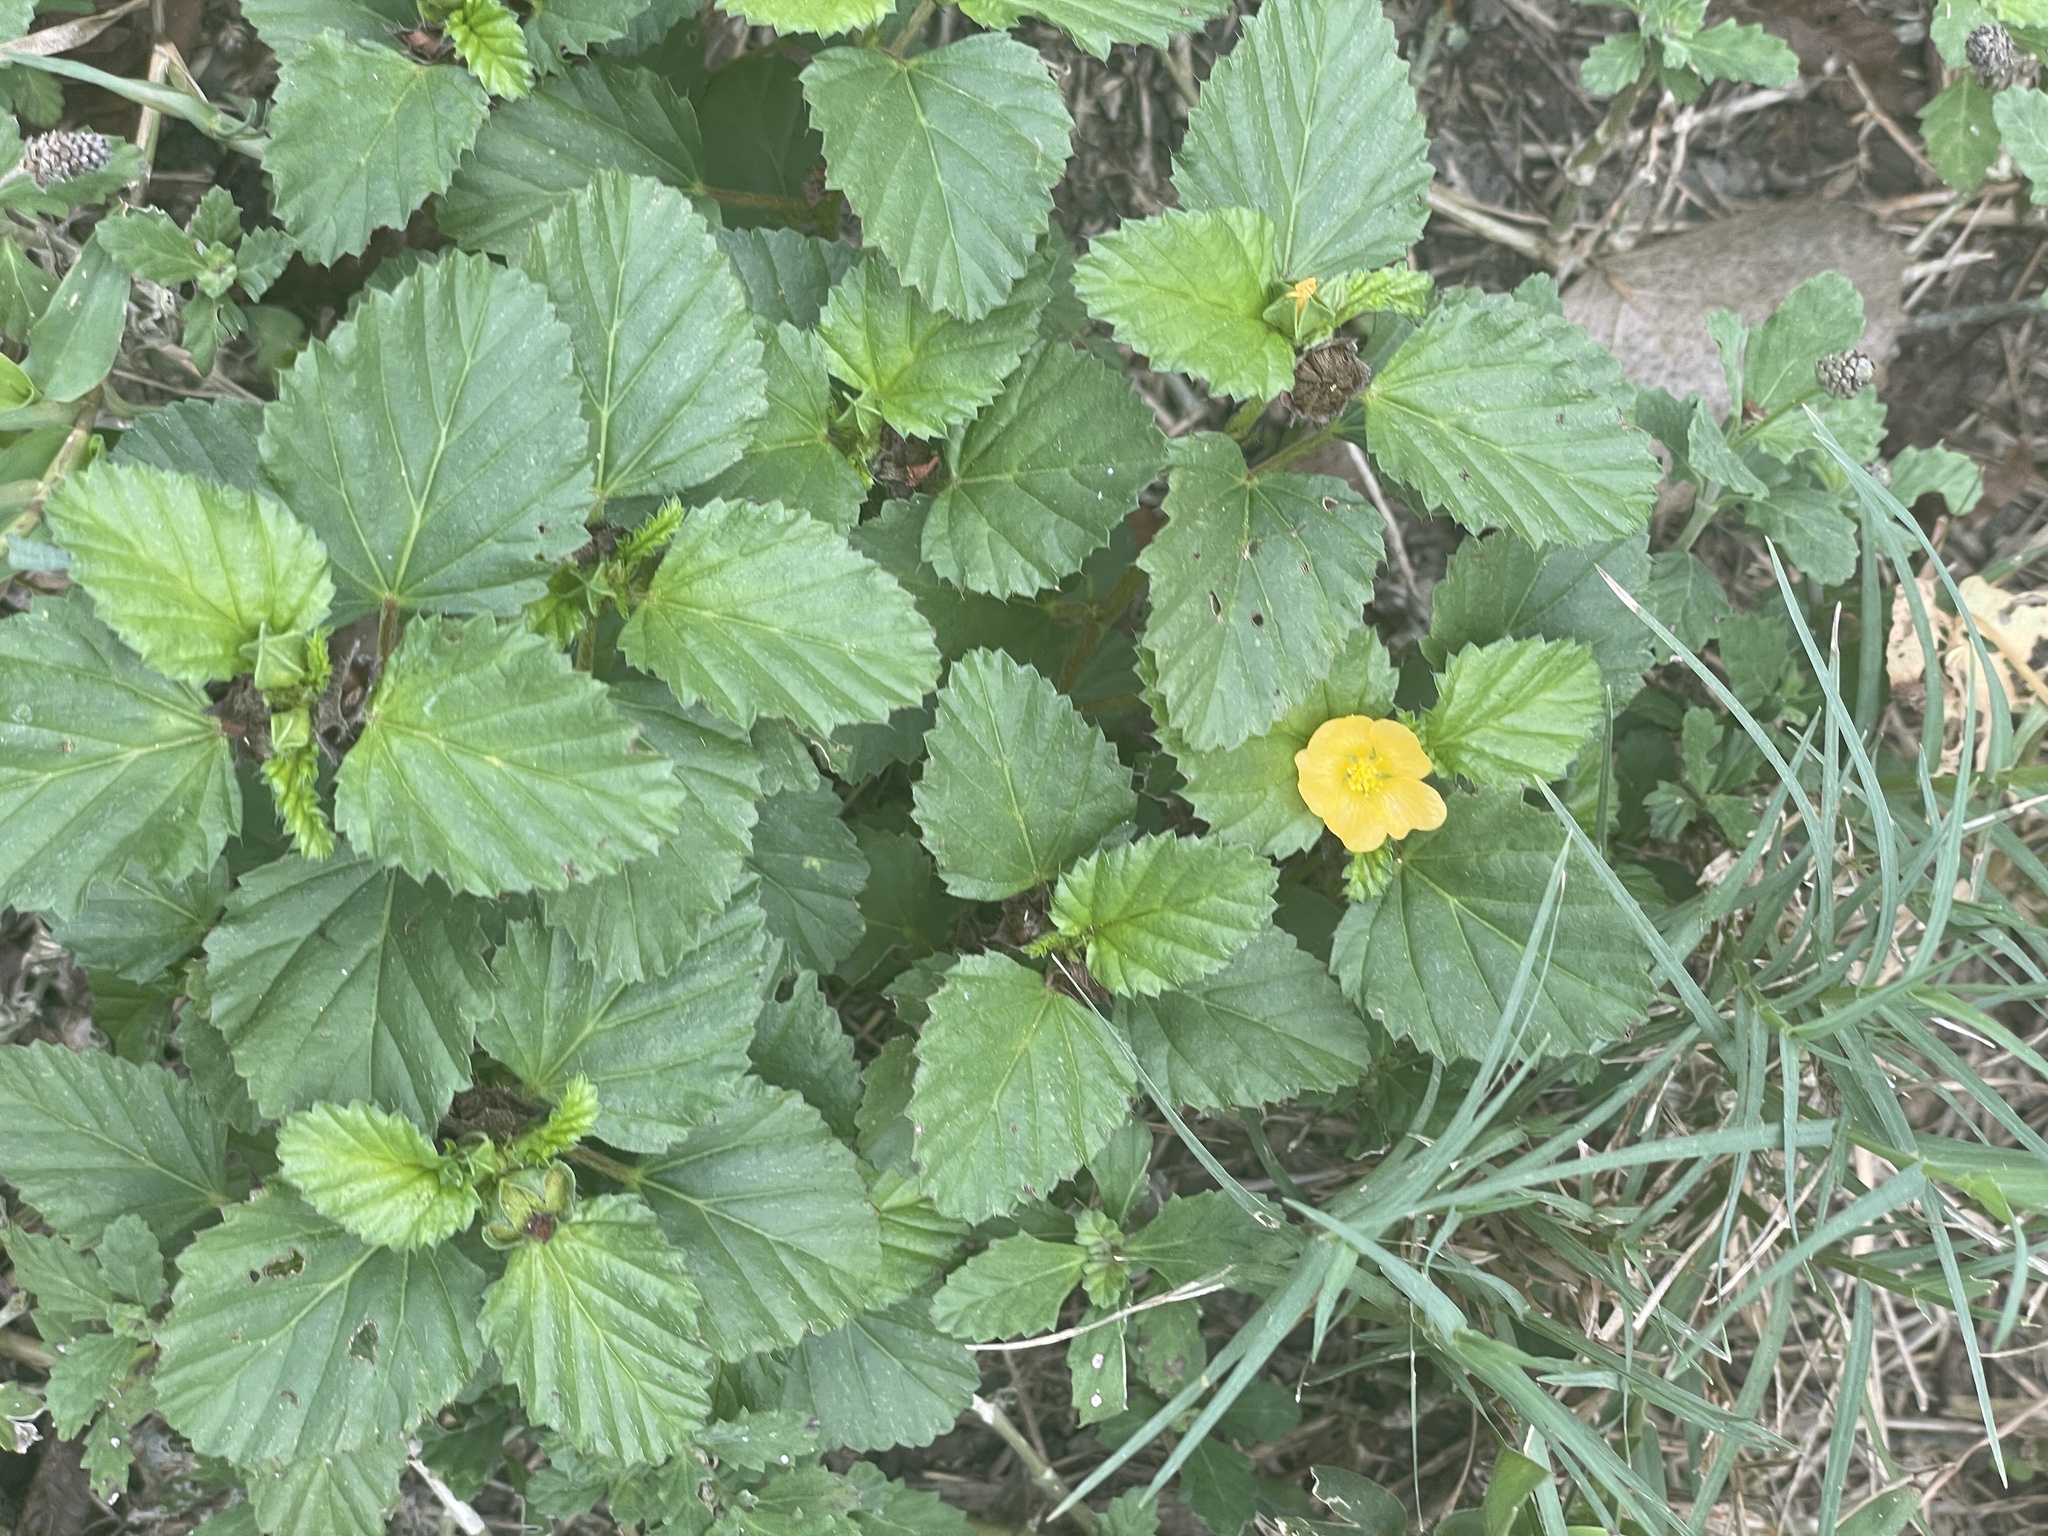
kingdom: Plantae
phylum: Tracheophyta
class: Magnoliopsida
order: Malvales
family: Malvaceae
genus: Malvastrum
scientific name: Malvastrum coromandelianum
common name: Threelobe false mallow
